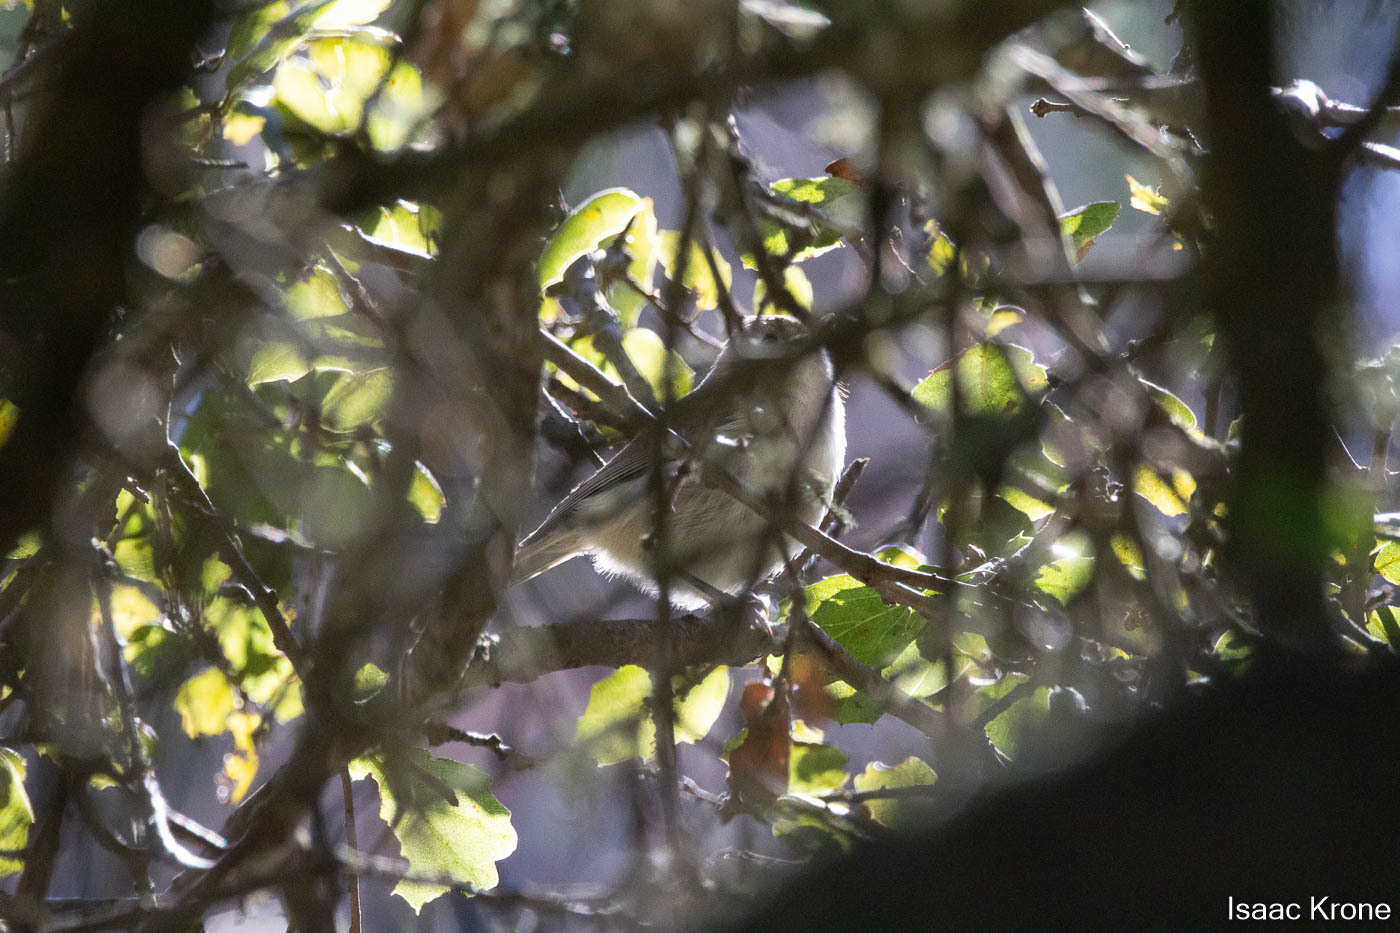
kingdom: Animalia
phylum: Chordata
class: Aves
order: Passeriformes
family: Paridae
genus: Baeolophus
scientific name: Baeolophus inornatus
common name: Oak titmouse
